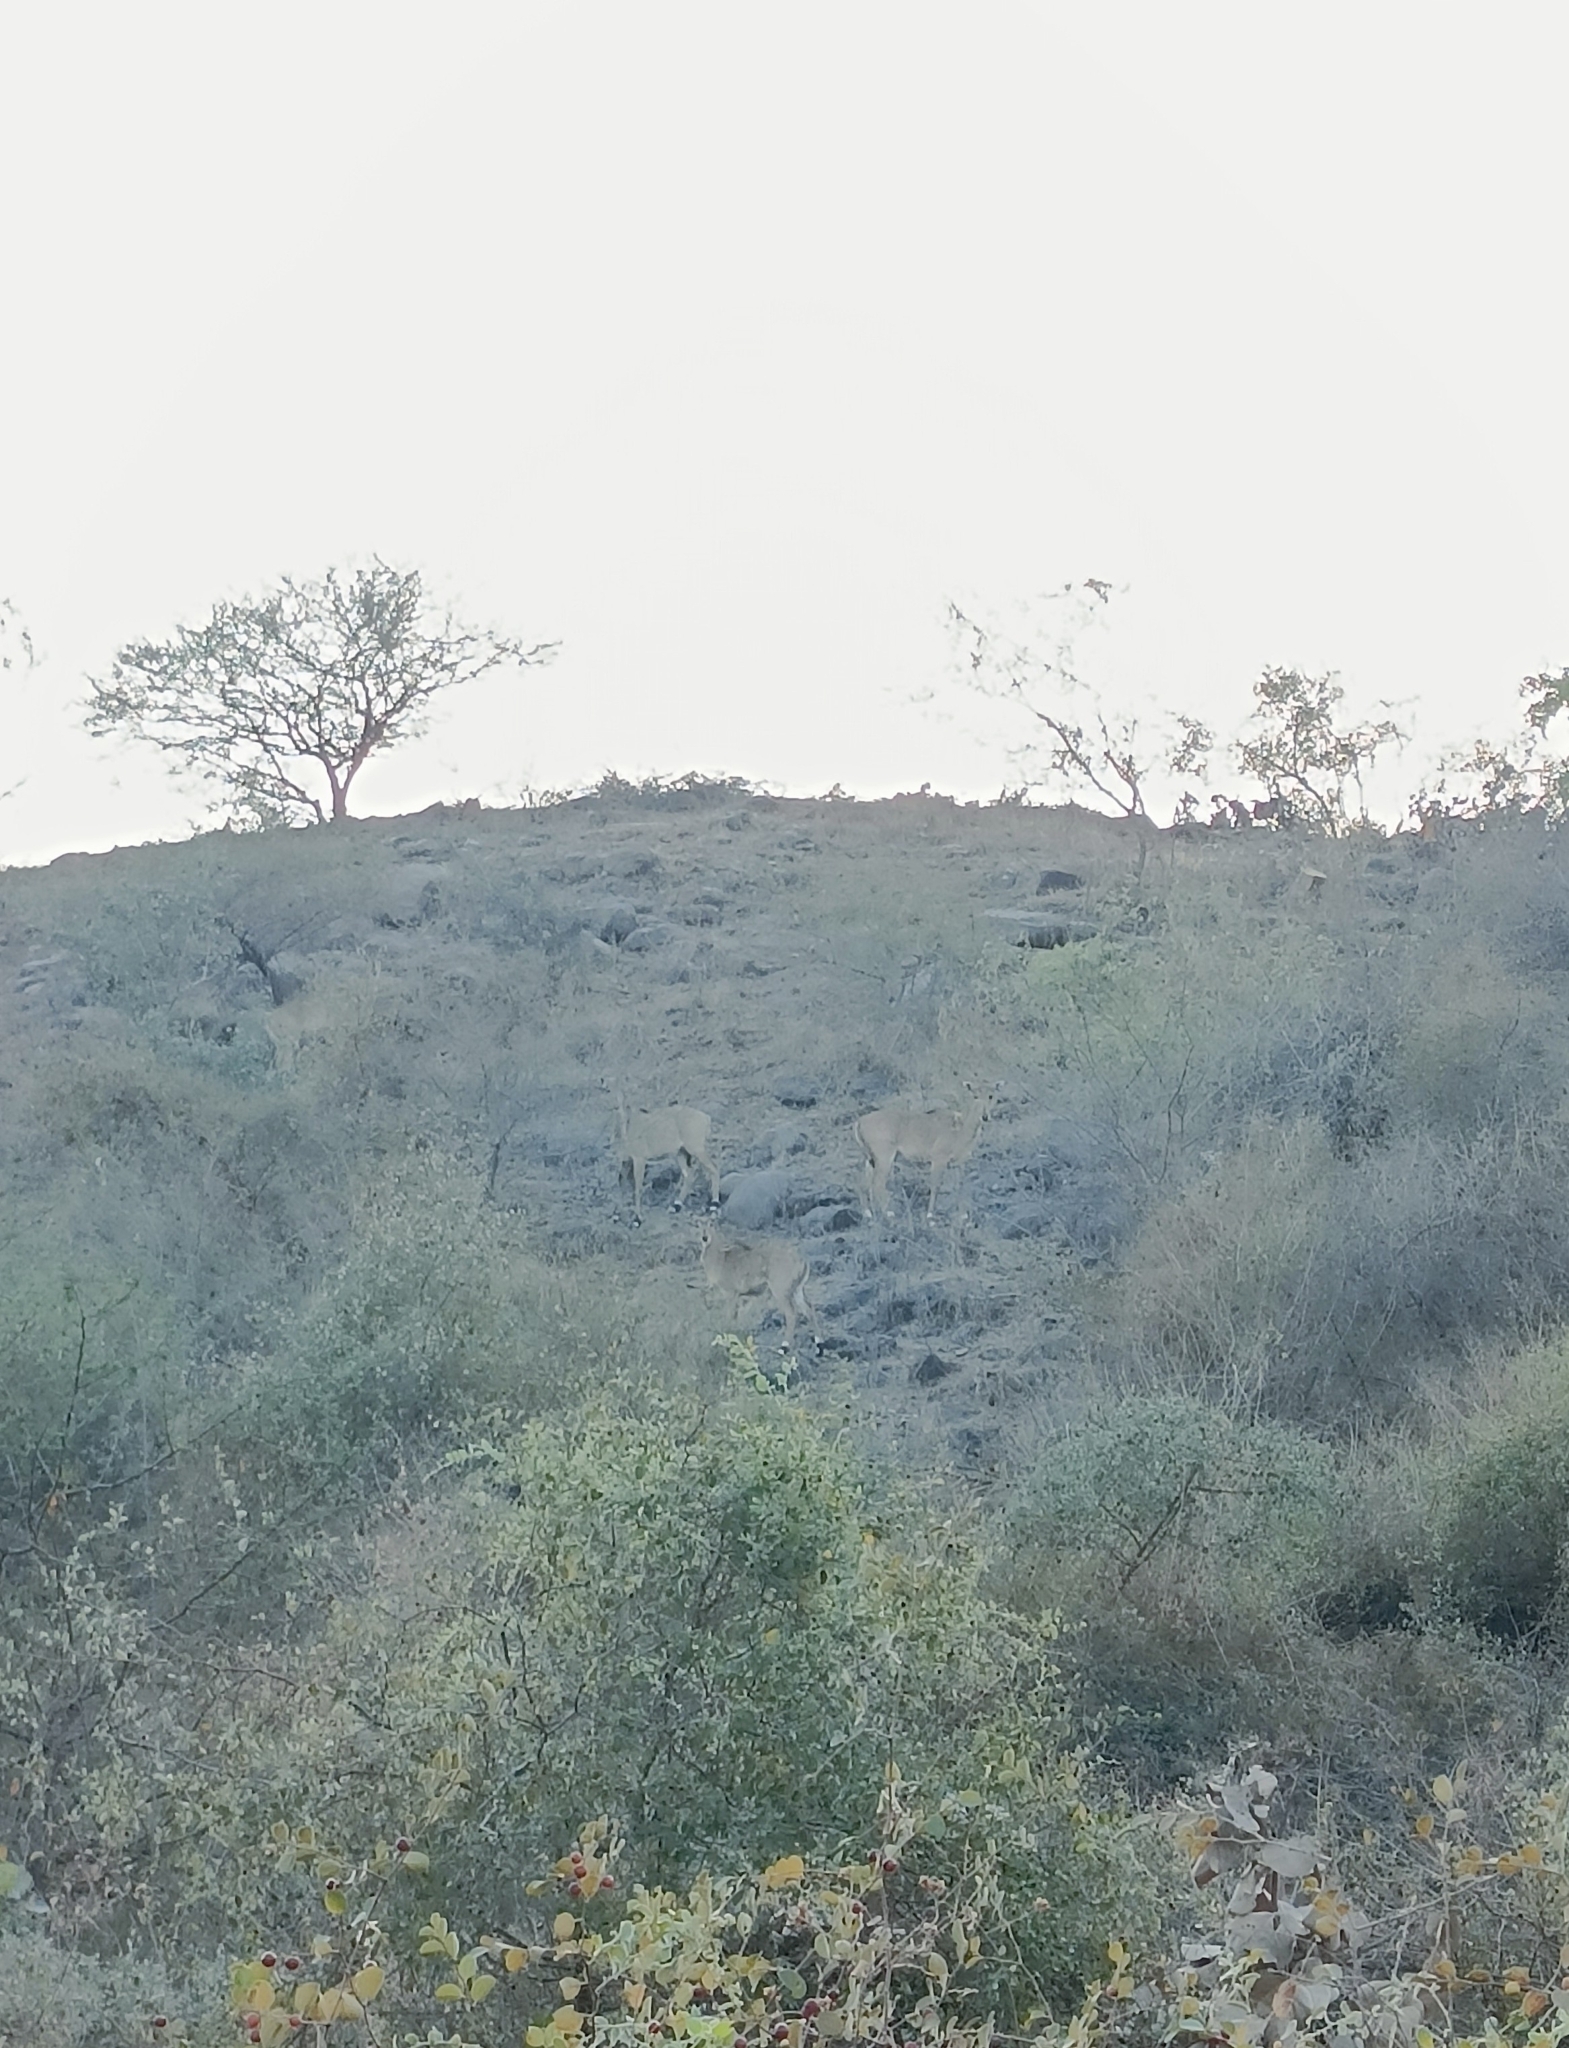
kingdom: Animalia
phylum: Chordata
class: Mammalia
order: Artiodactyla
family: Bovidae
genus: Boselaphus
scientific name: Boselaphus tragocamelus
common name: Nilgai
